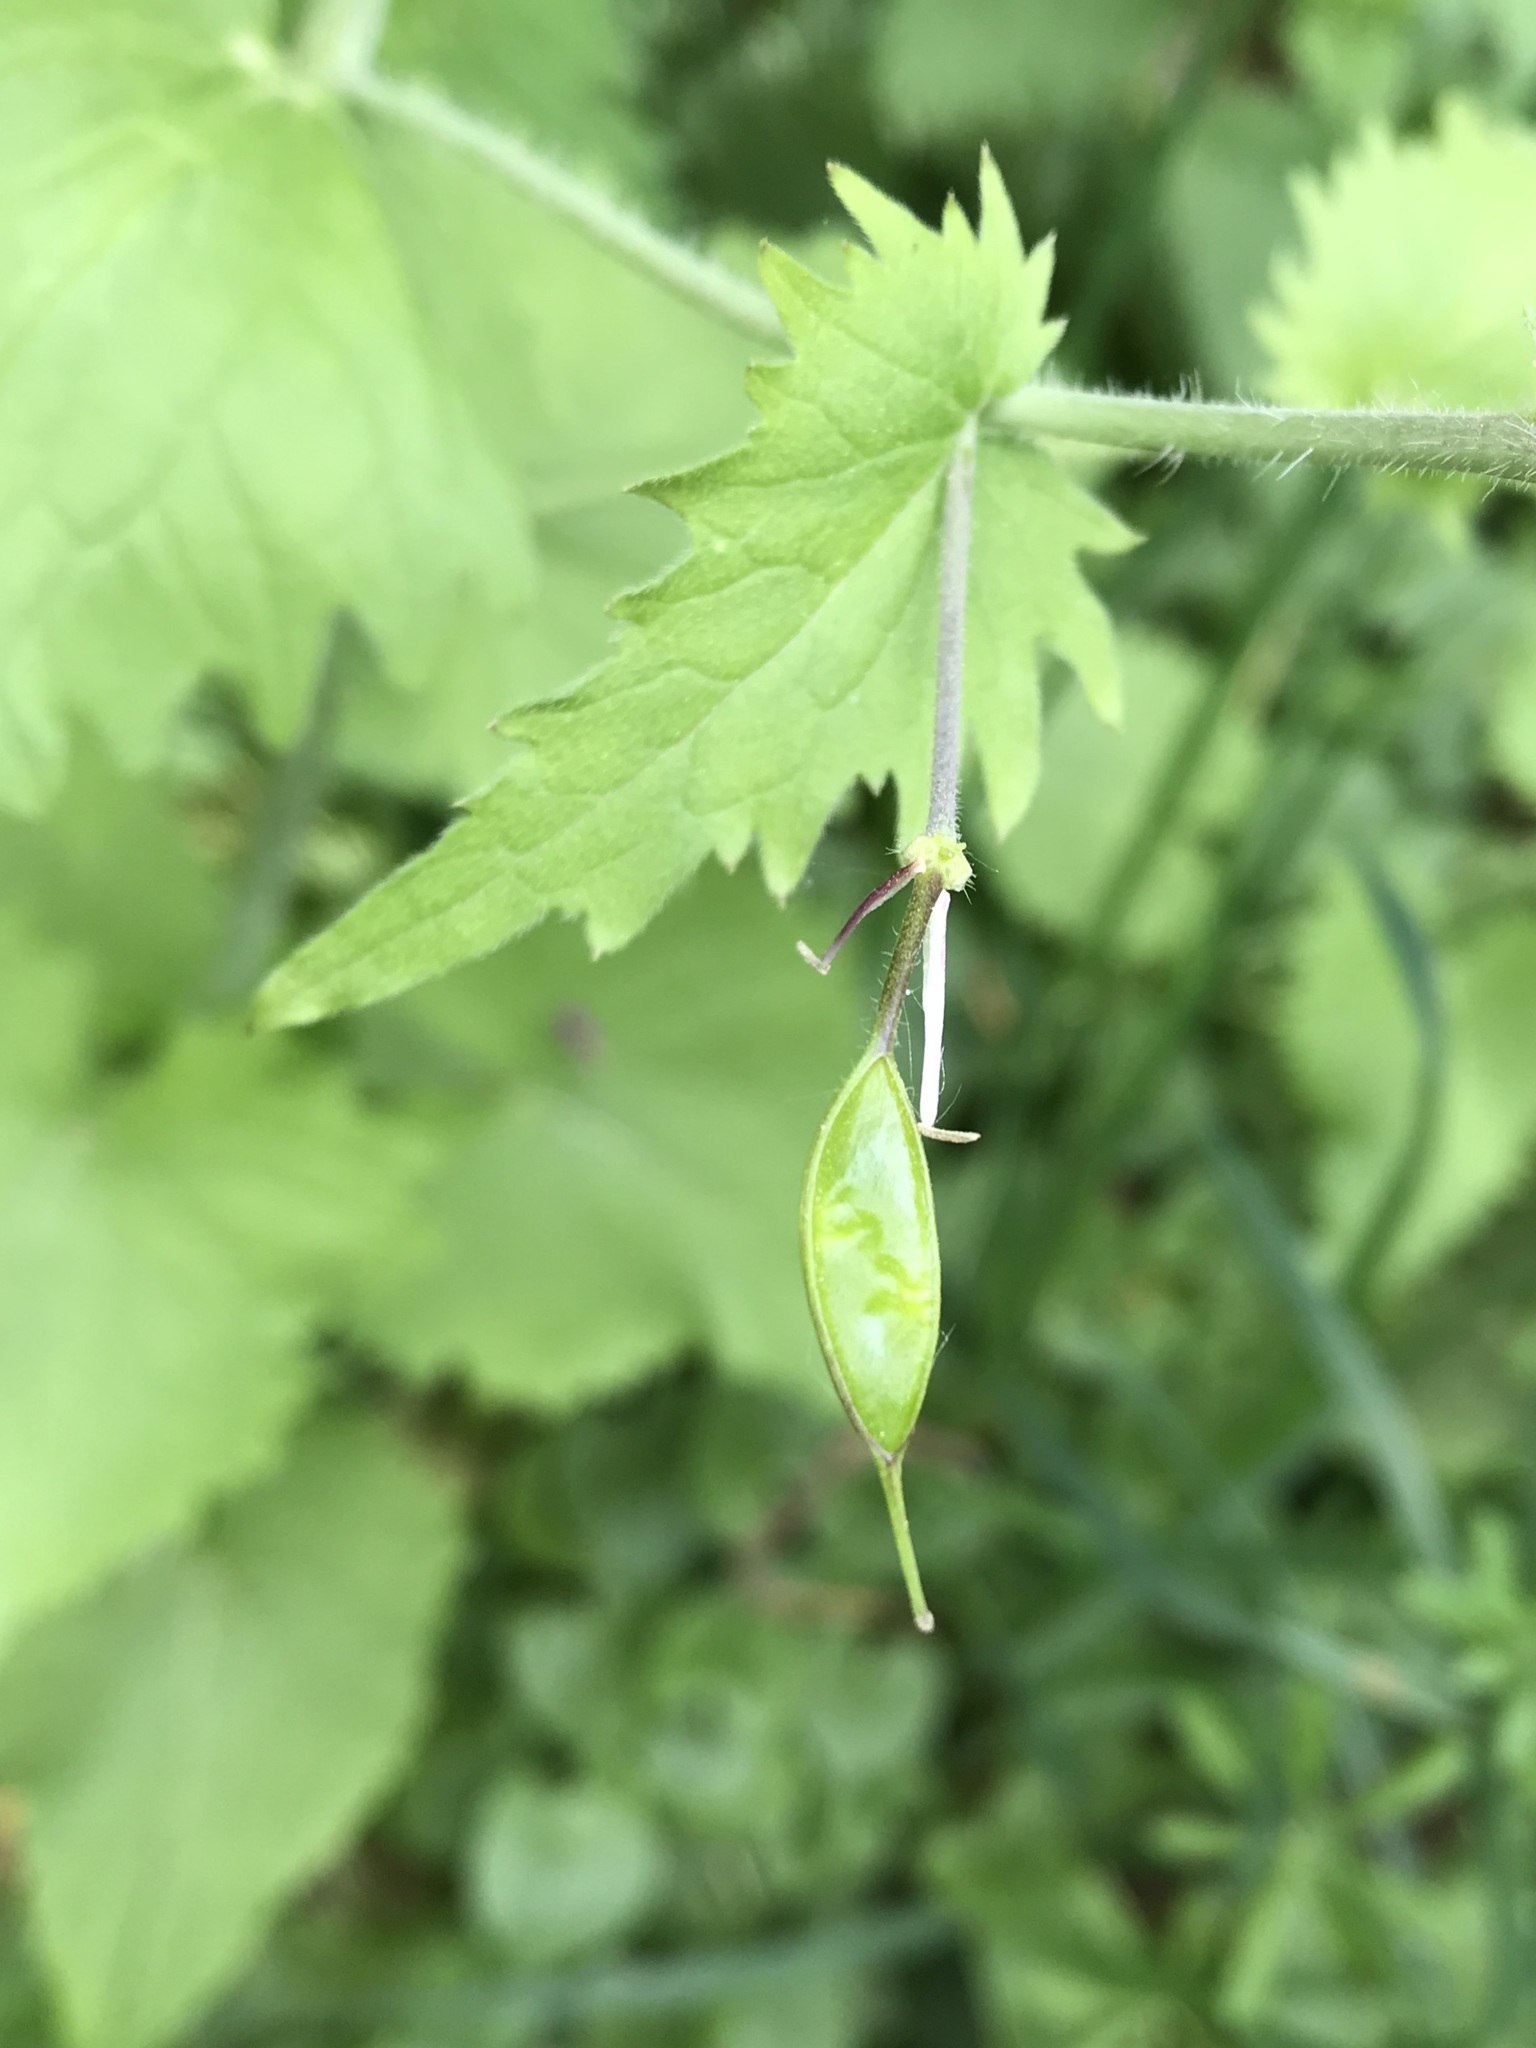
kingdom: Plantae
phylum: Tracheophyta
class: Magnoliopsida
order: Brassicales
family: Brassicaceae
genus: Lunaria
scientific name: Lunaria annua
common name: Honesty
